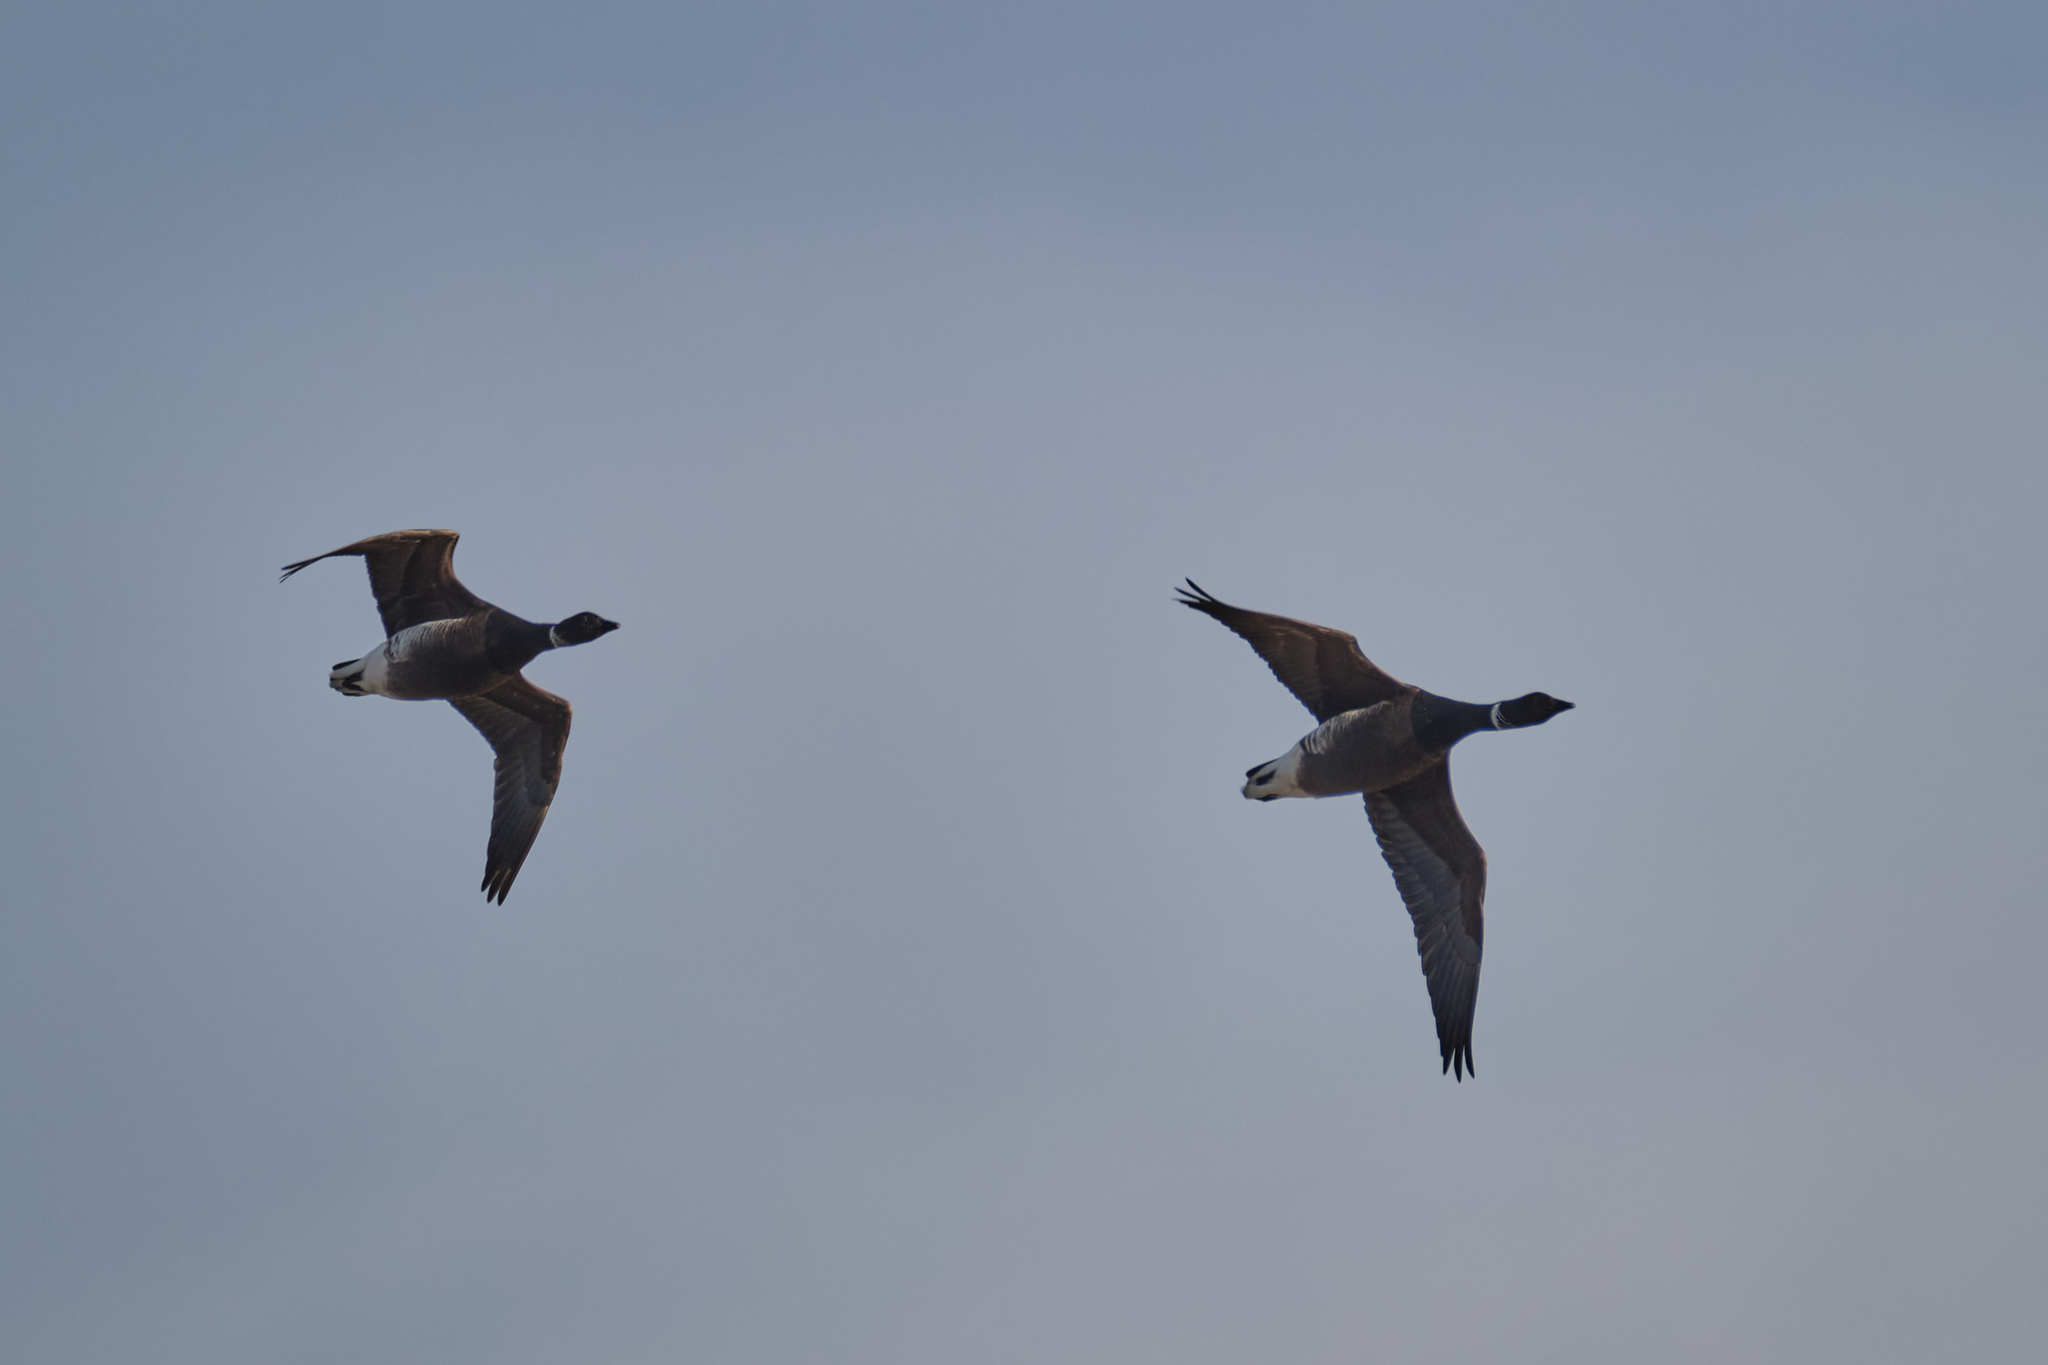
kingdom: Animalia
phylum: Chordata
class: Aves
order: Anseriformes
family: Anatidae
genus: Branta
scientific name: Branta bernicla
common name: Brant goose
